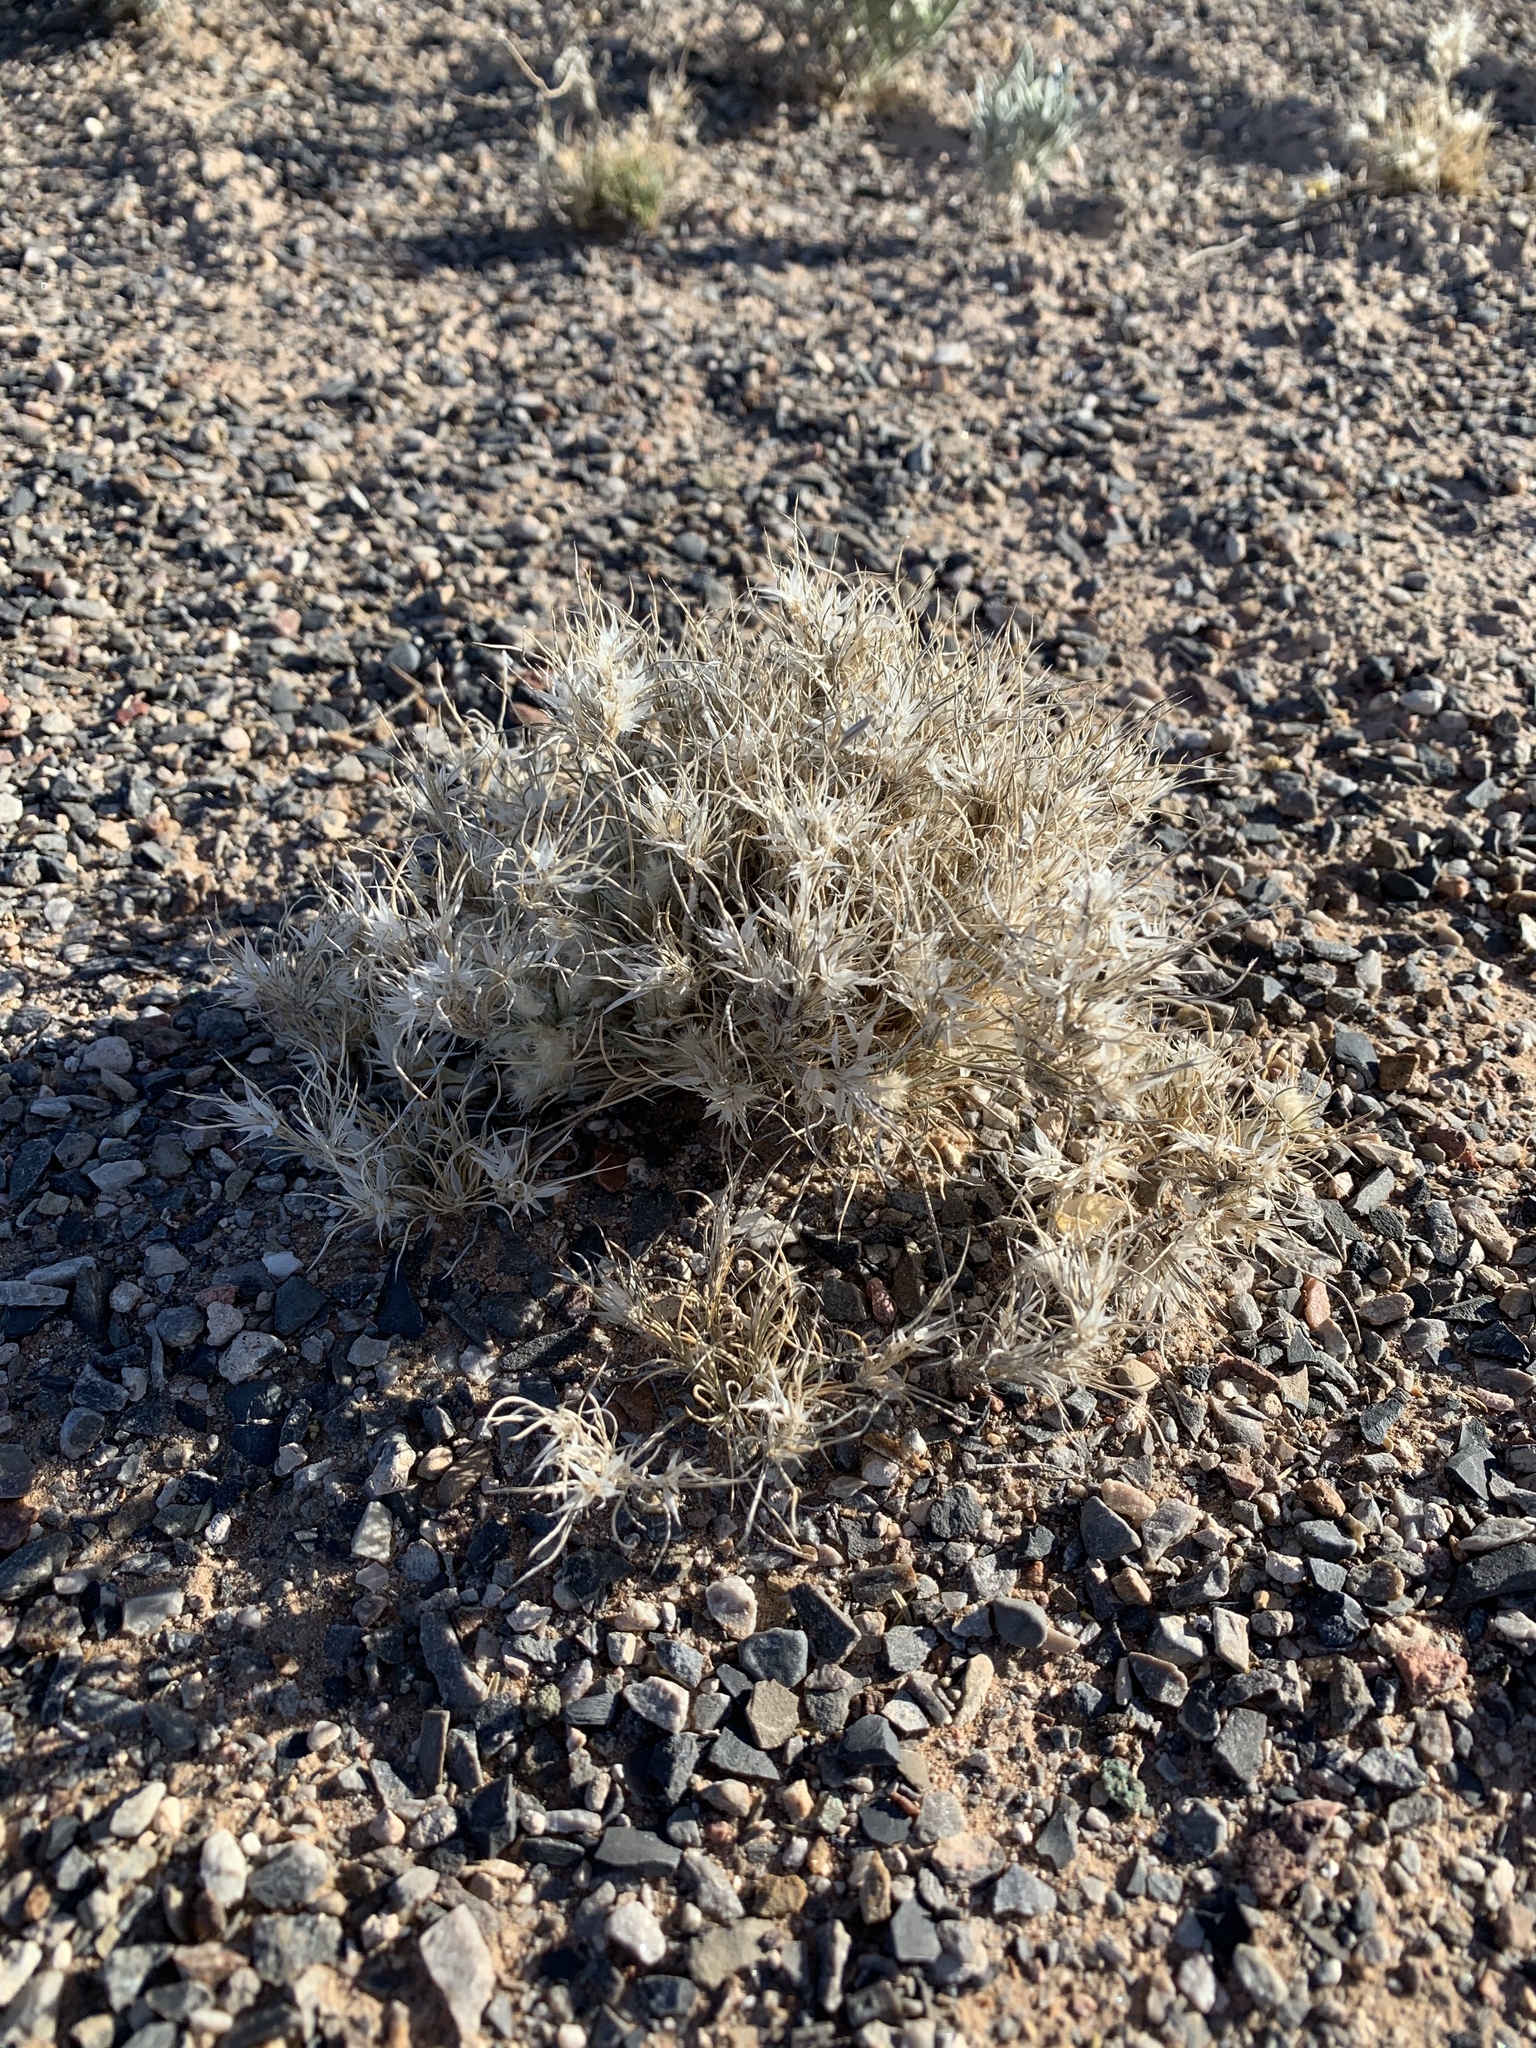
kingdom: Plantae
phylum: Tracheophyta
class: Liliopsida
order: Poales
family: Poaceae
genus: Dasyochloa
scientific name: Dasyochloa pulchella
